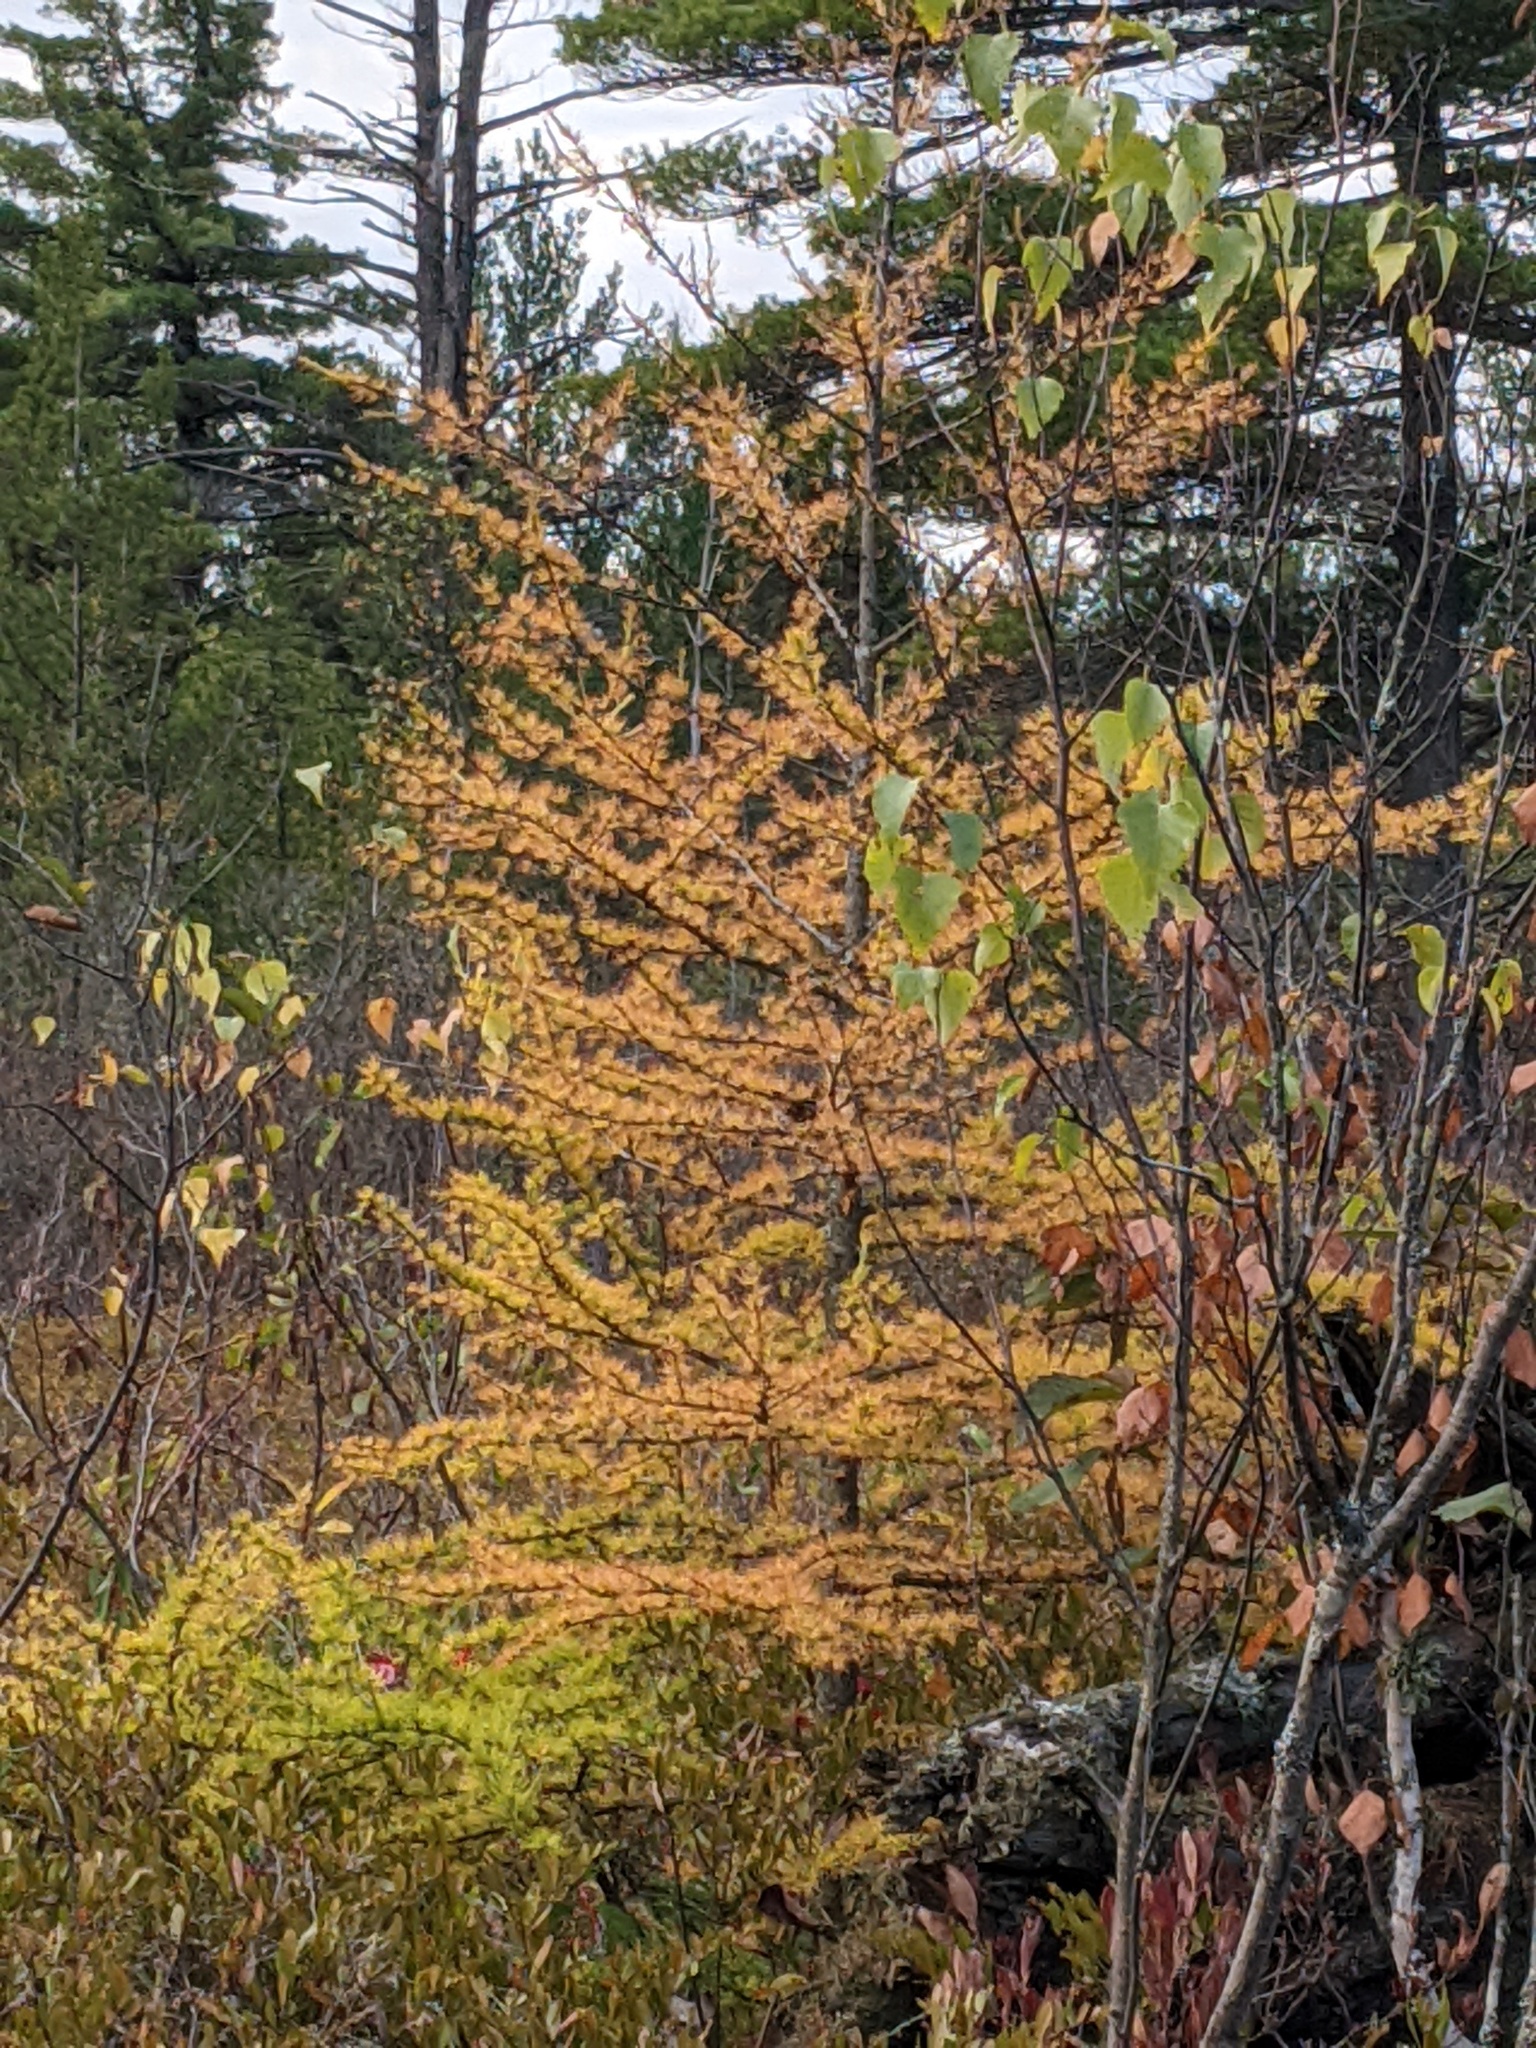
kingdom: Plantae
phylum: Tracheophyta
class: Pinopsida
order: Pinales
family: Pinaceae
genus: Larix
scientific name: Larix laricina
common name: American larch
